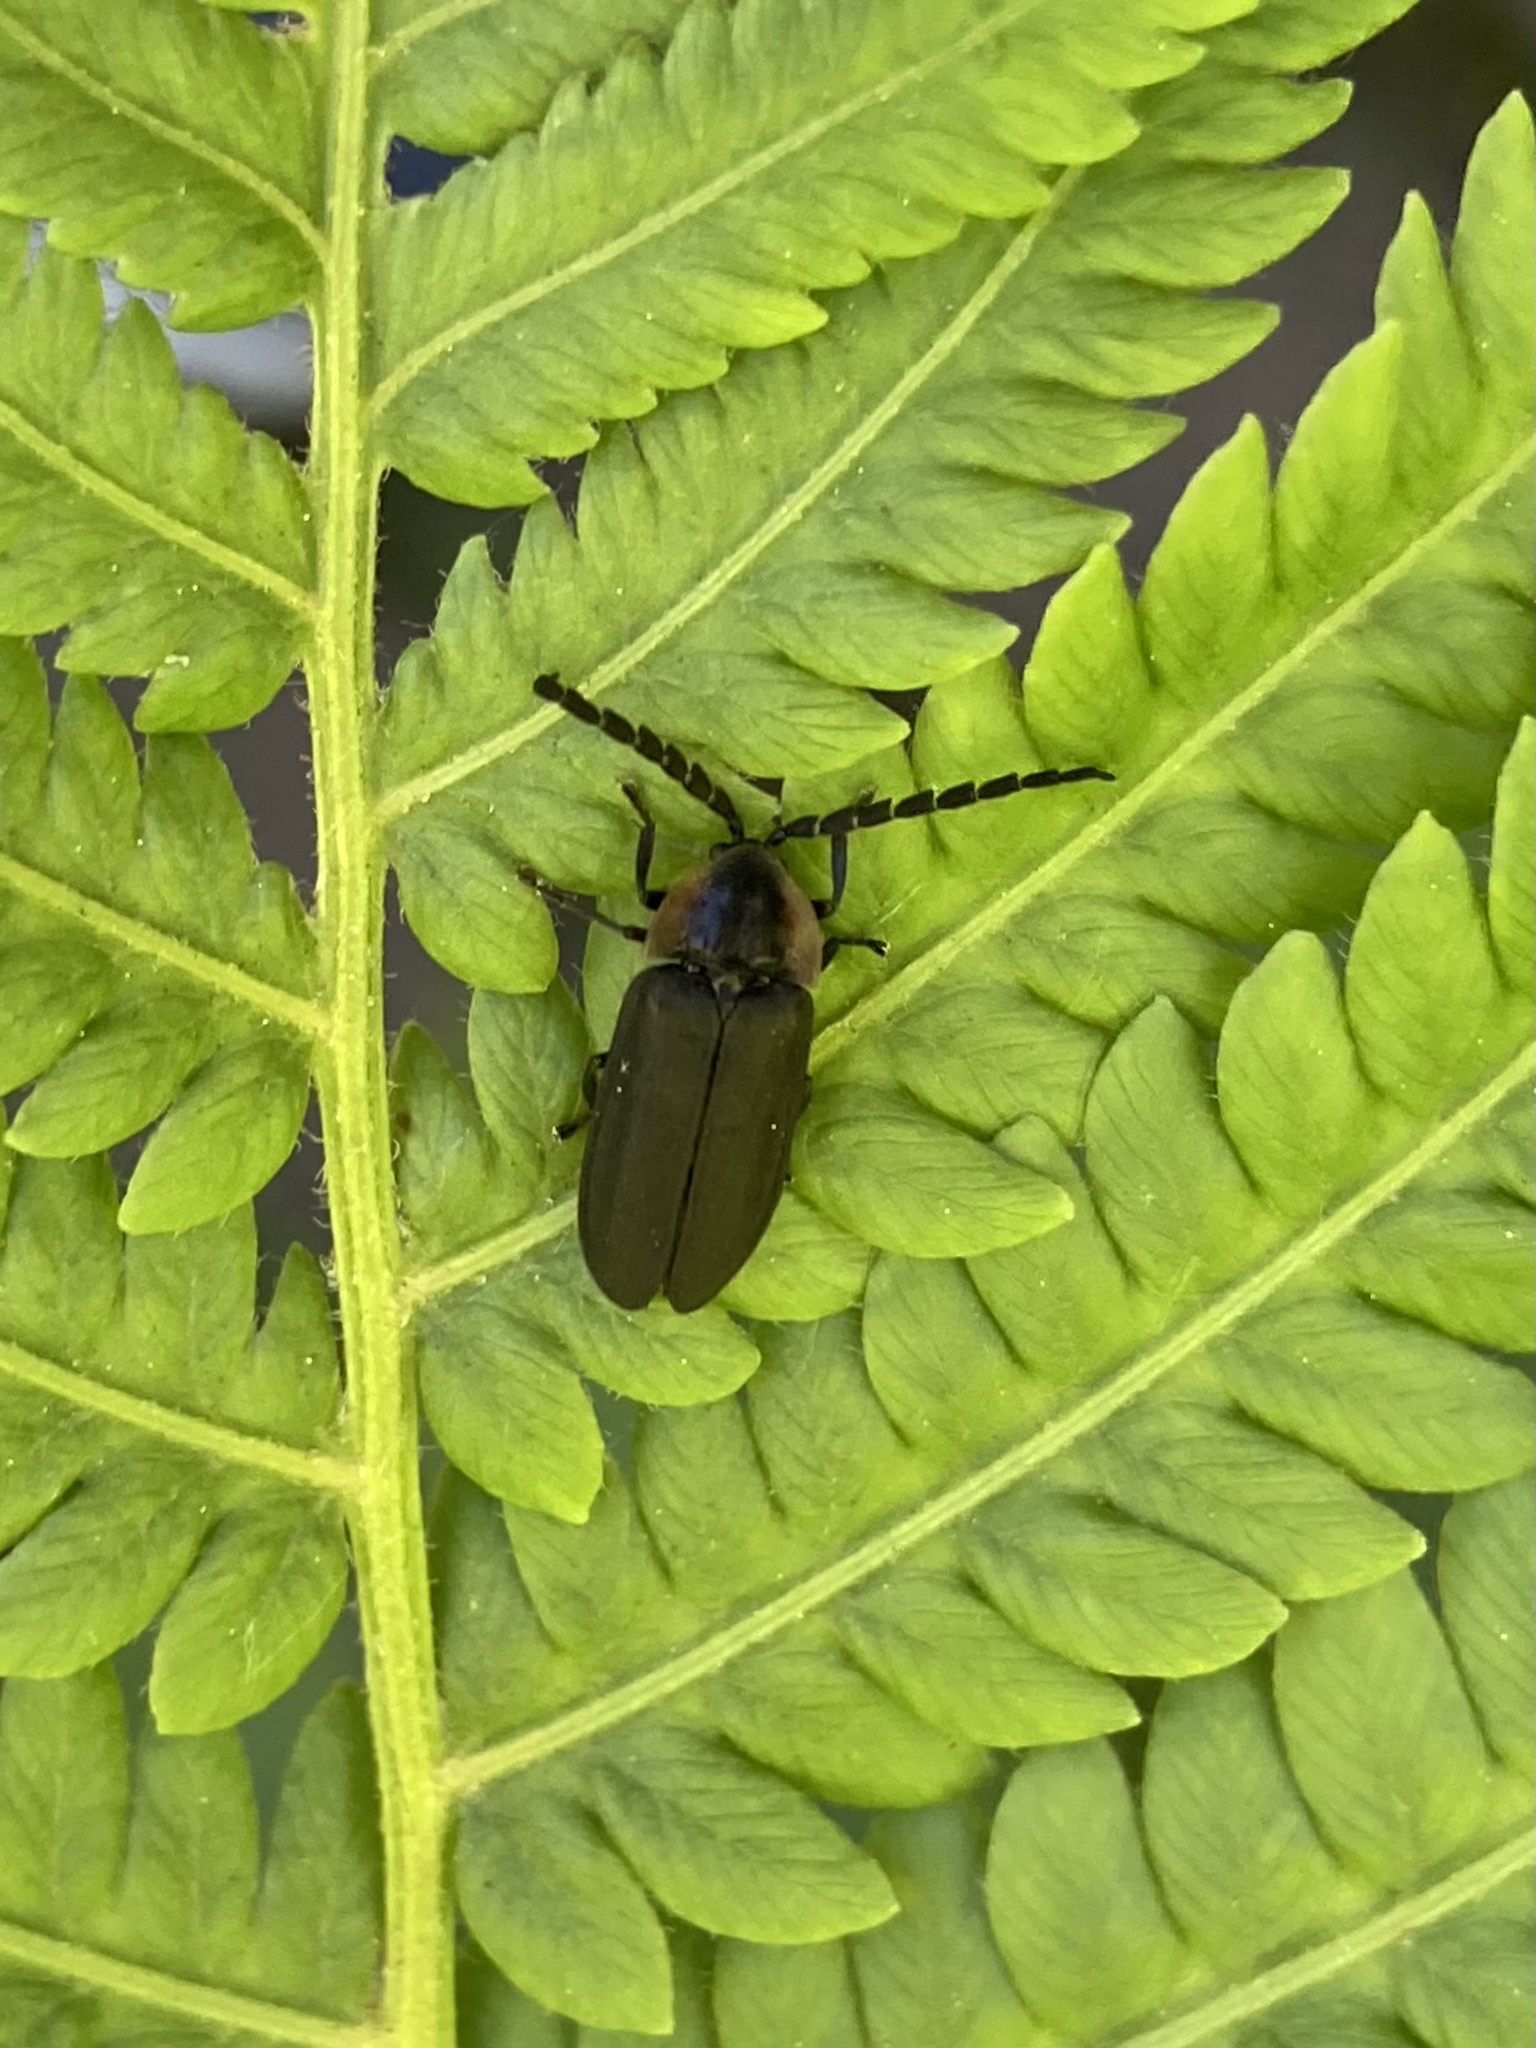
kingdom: Animalia
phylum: Arthropoda
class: Insecta
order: Coleoptera
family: Lampyridae
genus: Lucidota
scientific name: Lucidota atra
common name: Black firefly
